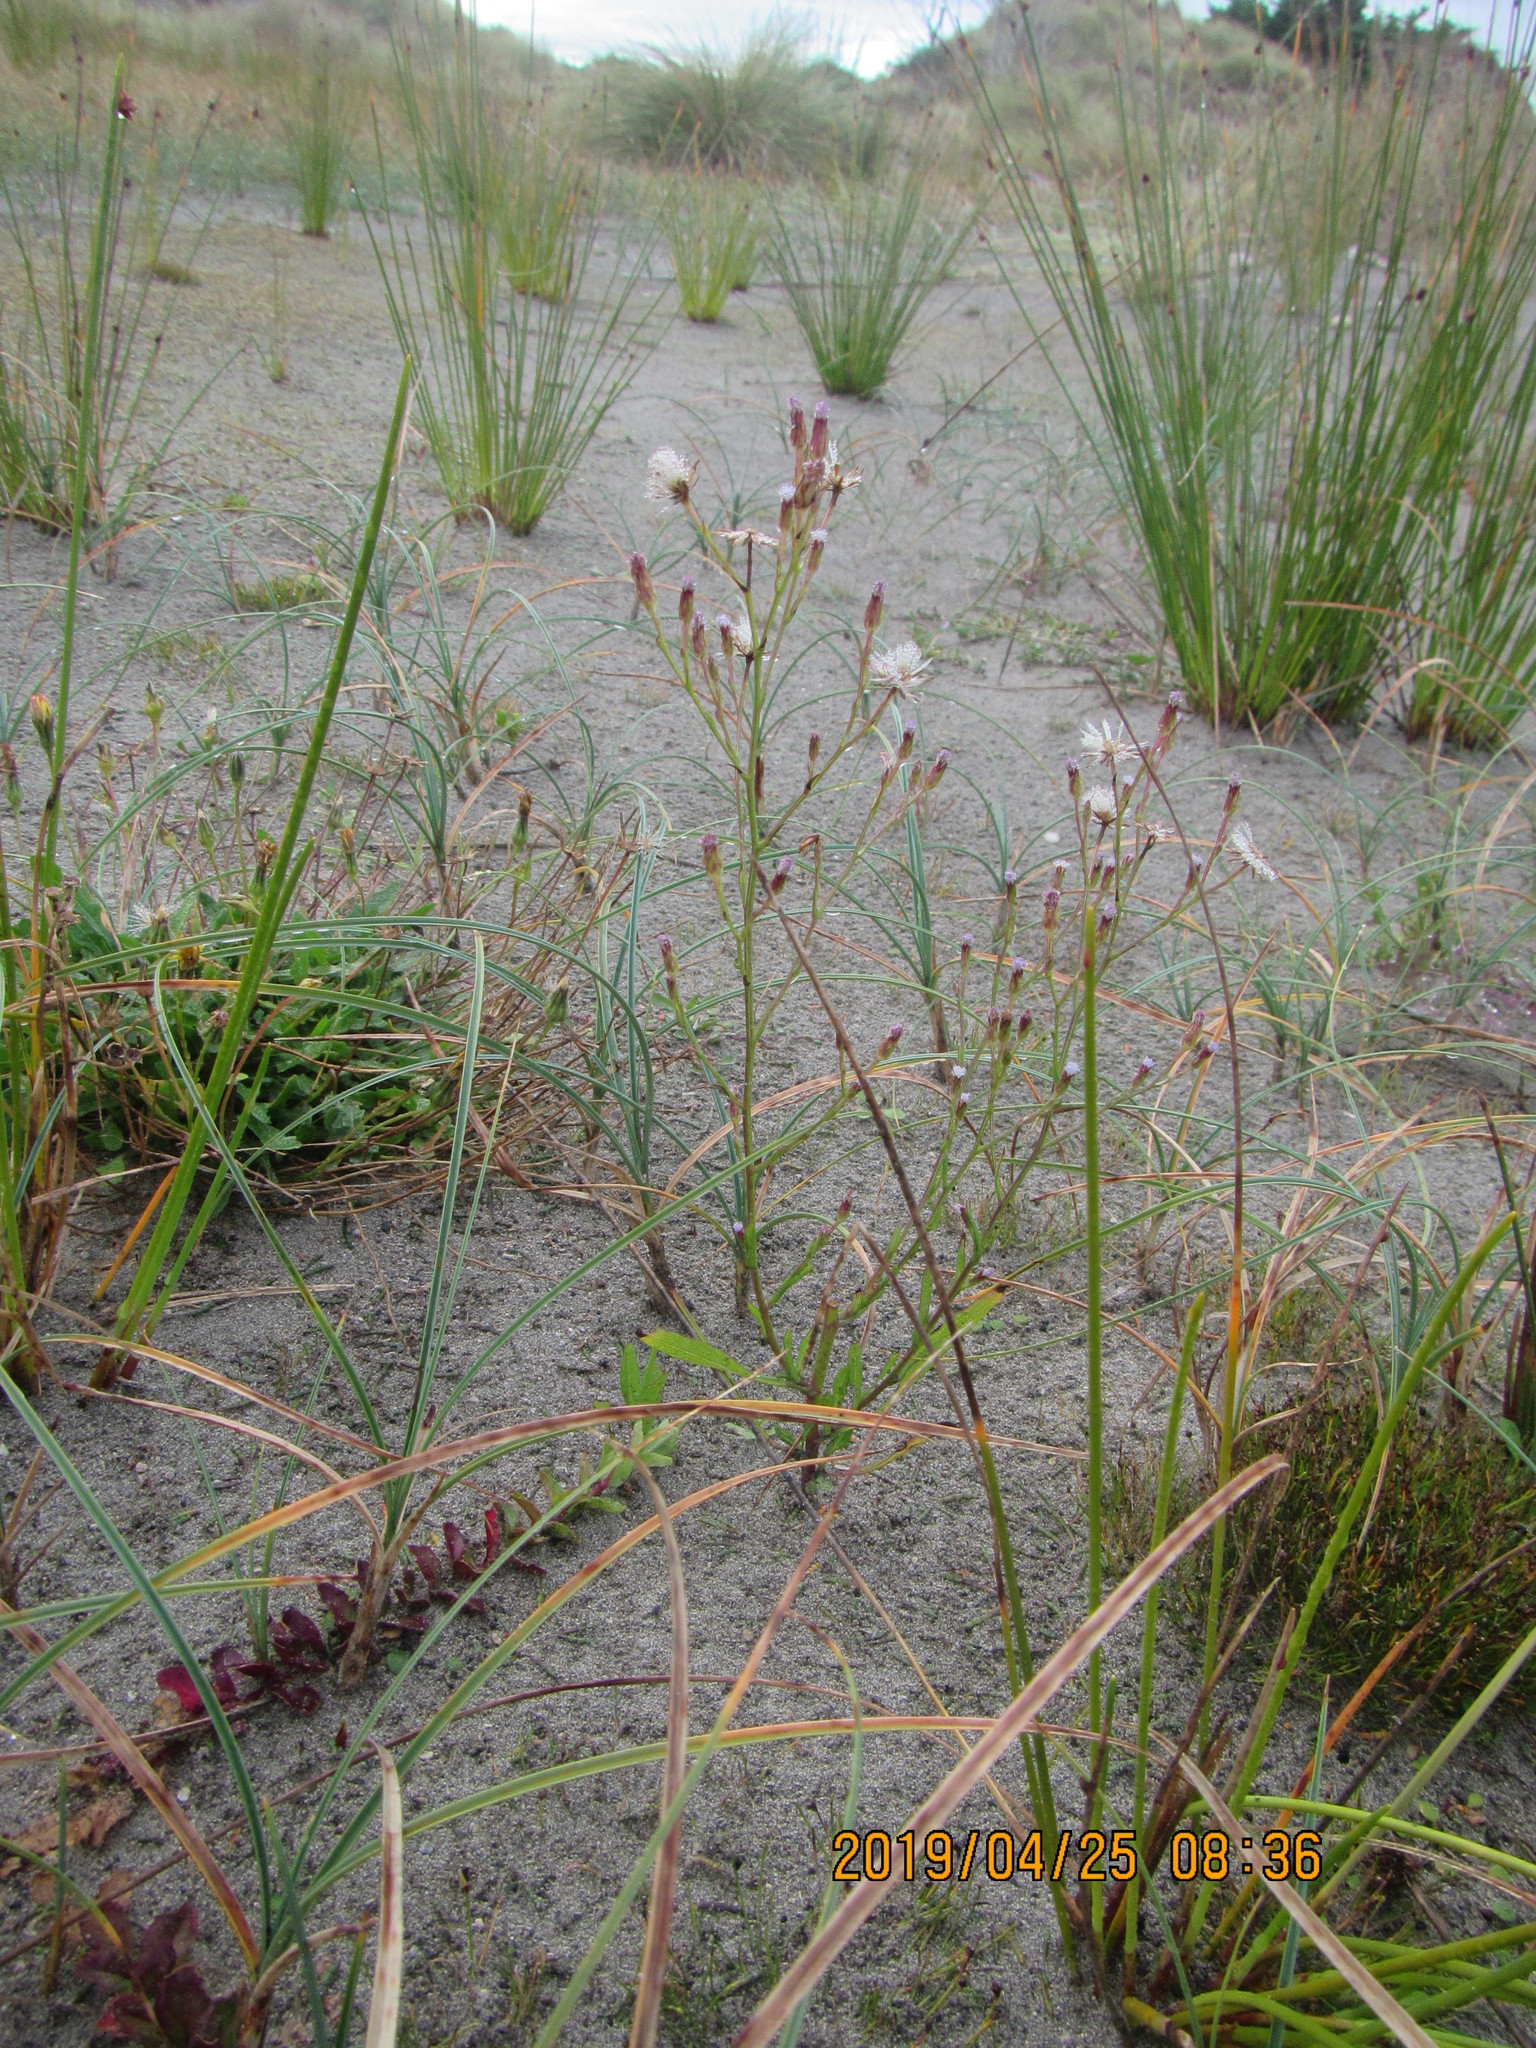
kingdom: Plantae
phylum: Tracheophyta
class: Magnoliopsida
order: Asterales
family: Asteraceae
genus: Symphyotrichum
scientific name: Symphyotrichum subulatum
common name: Annual saltmarsh aster
